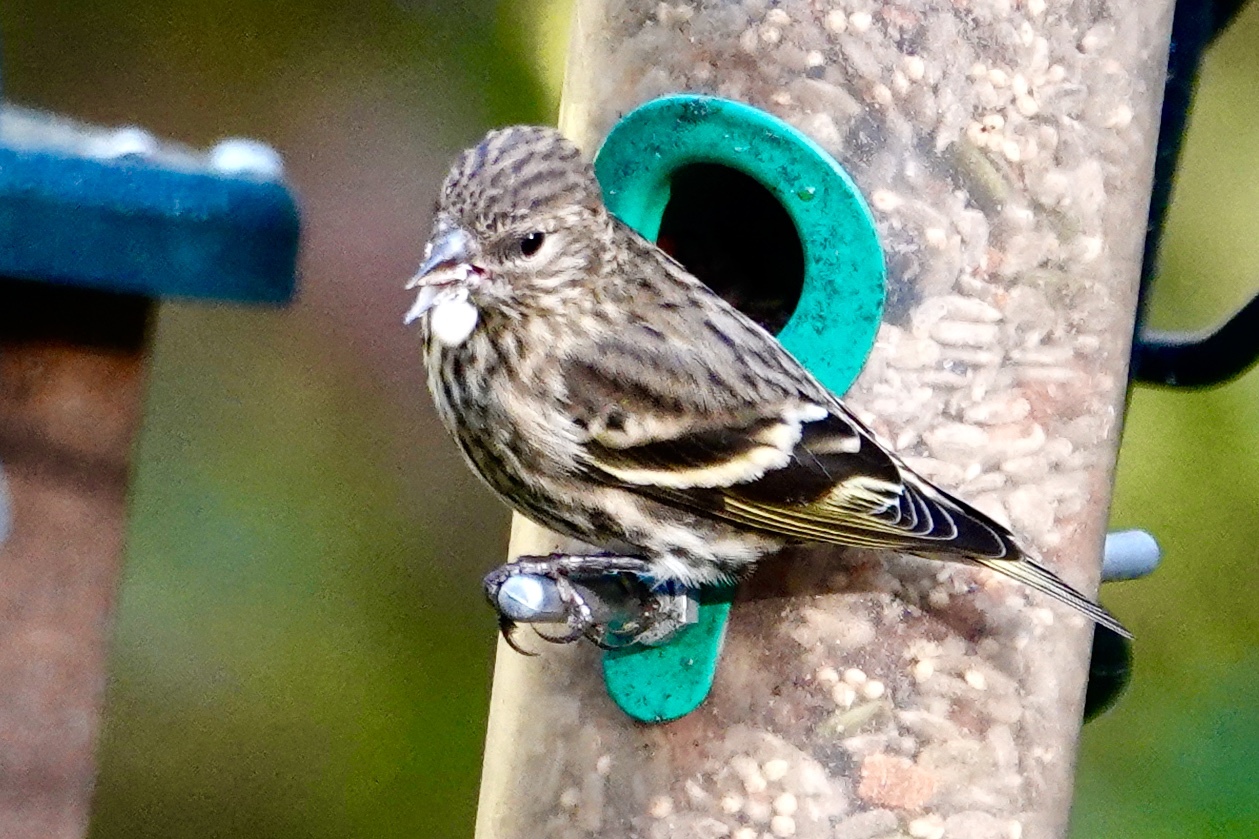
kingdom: Animalia
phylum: Chordata
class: Aves
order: Passeriformes
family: Fringillidae
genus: Spinus
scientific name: Spinus pinus
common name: Pine siskin
